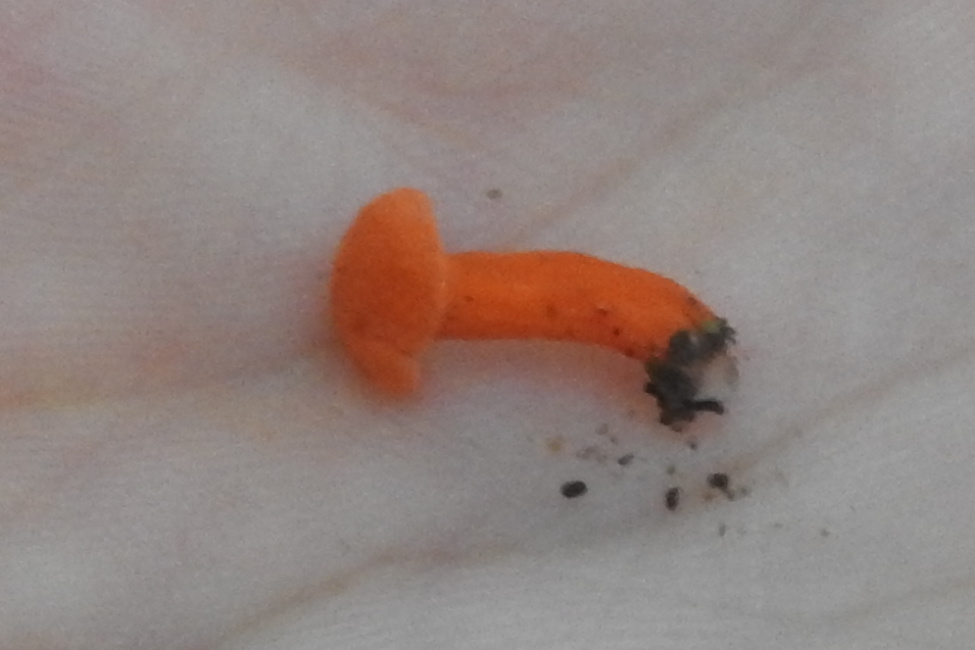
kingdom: Fungi
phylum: Basidiomycota
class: Agaricomycetes
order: Cantharellales
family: Hydnaceae
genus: Cantharellus
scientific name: Cantharellus cinnabarinus
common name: Cinnabar chanterelle
